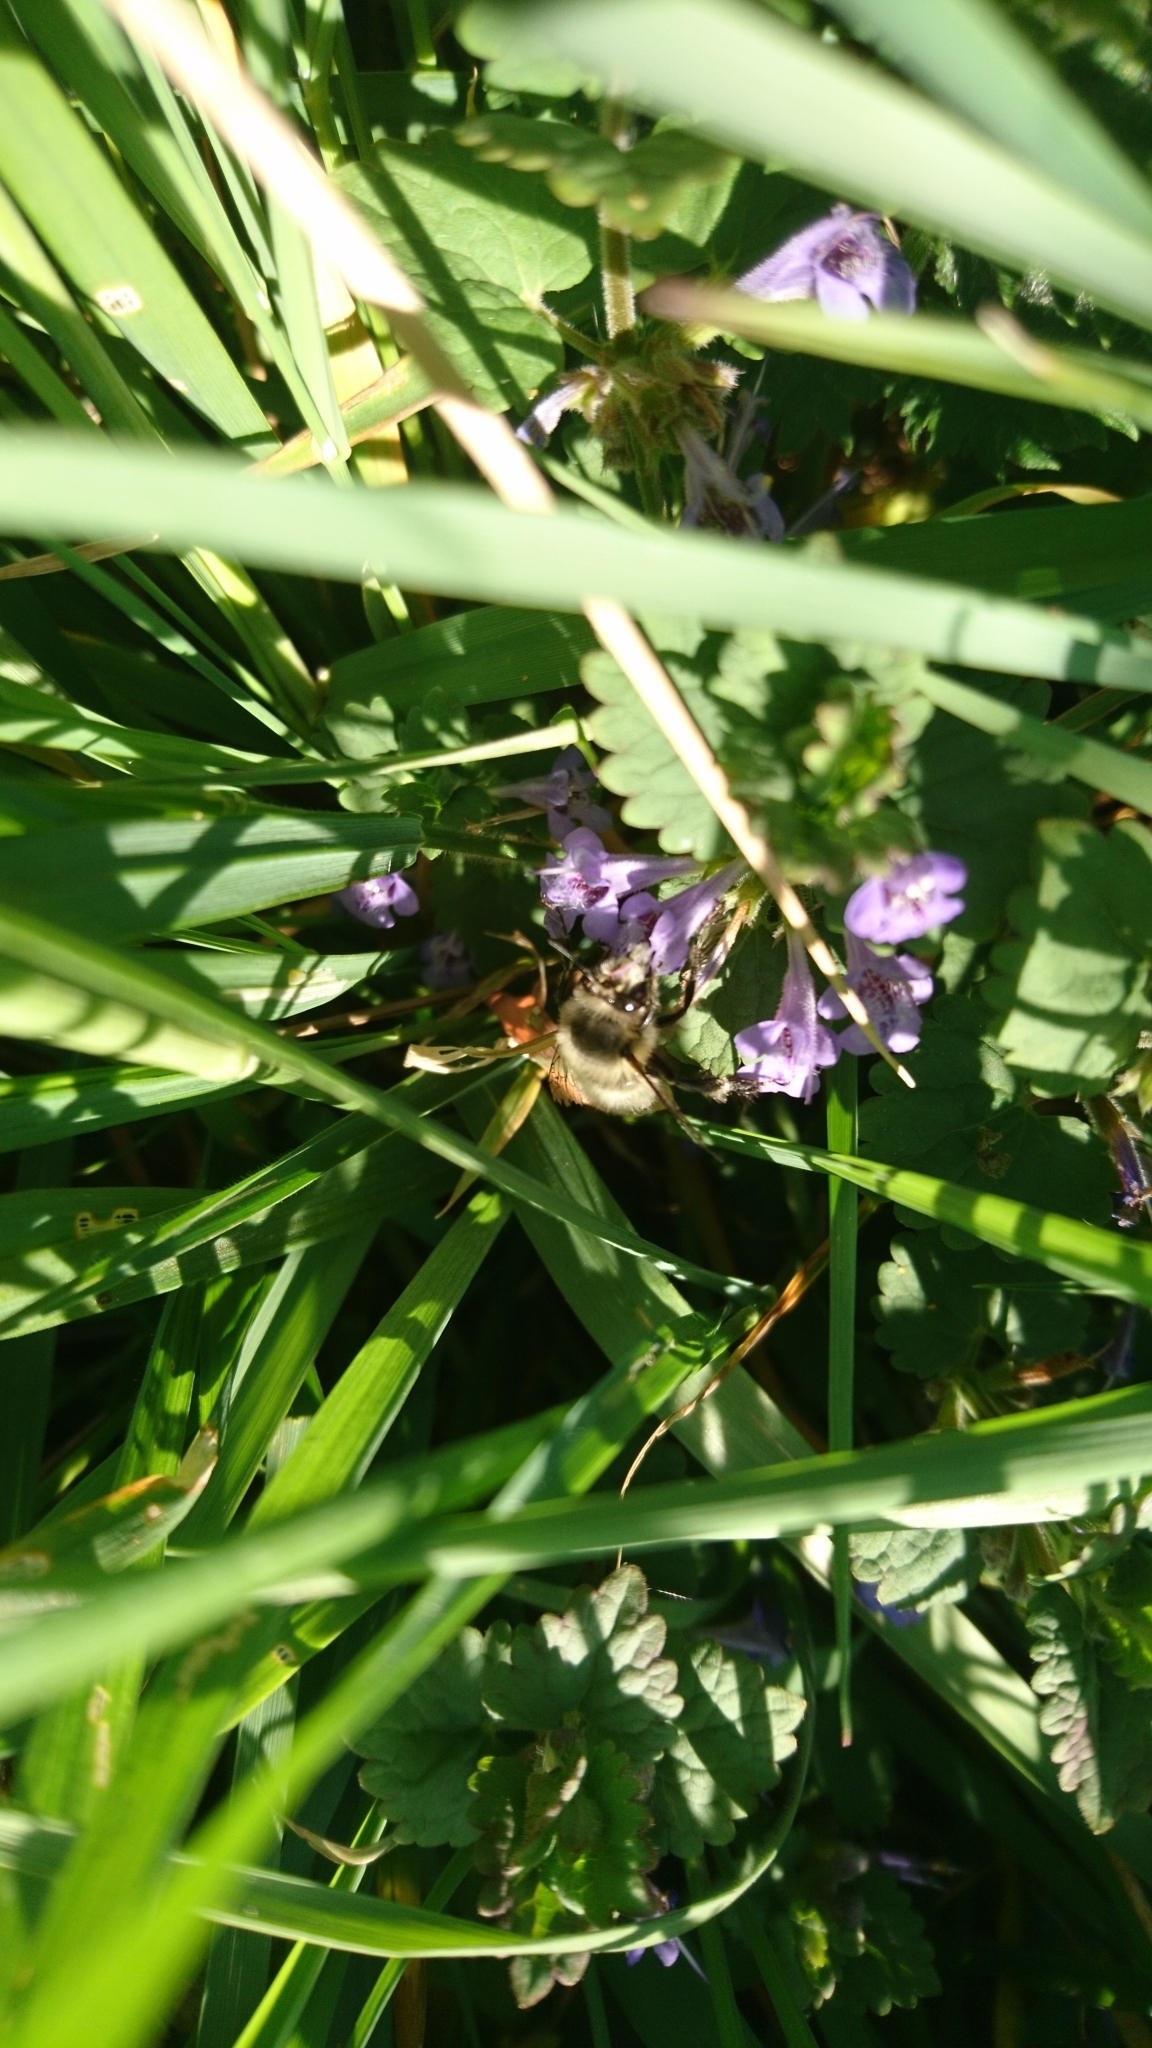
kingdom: Animalia
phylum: Arthropoda
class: Insecta
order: Hymenoptera
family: Apidae
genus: Anthophora
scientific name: Anthophora plumipes
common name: Hairy-footed flower bee
